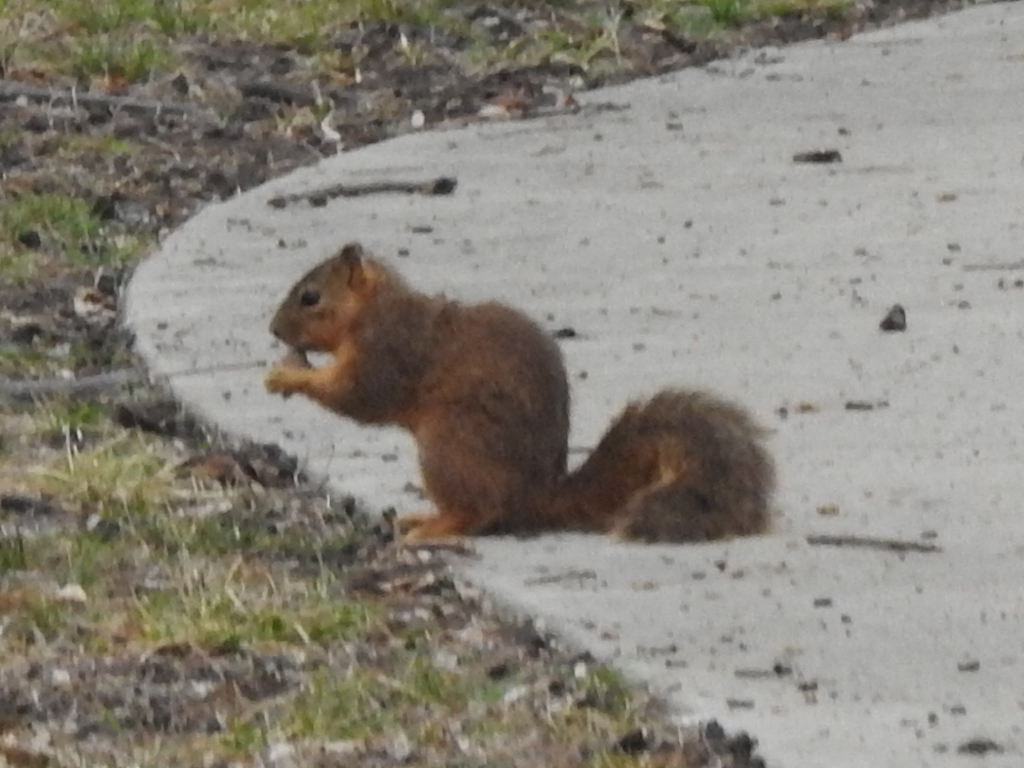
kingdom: Animalia
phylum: Chordata
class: Mammalia
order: Rodentia
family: Sciuridae
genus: Sciurus
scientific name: Sciurus niger
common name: Fox squirrel
